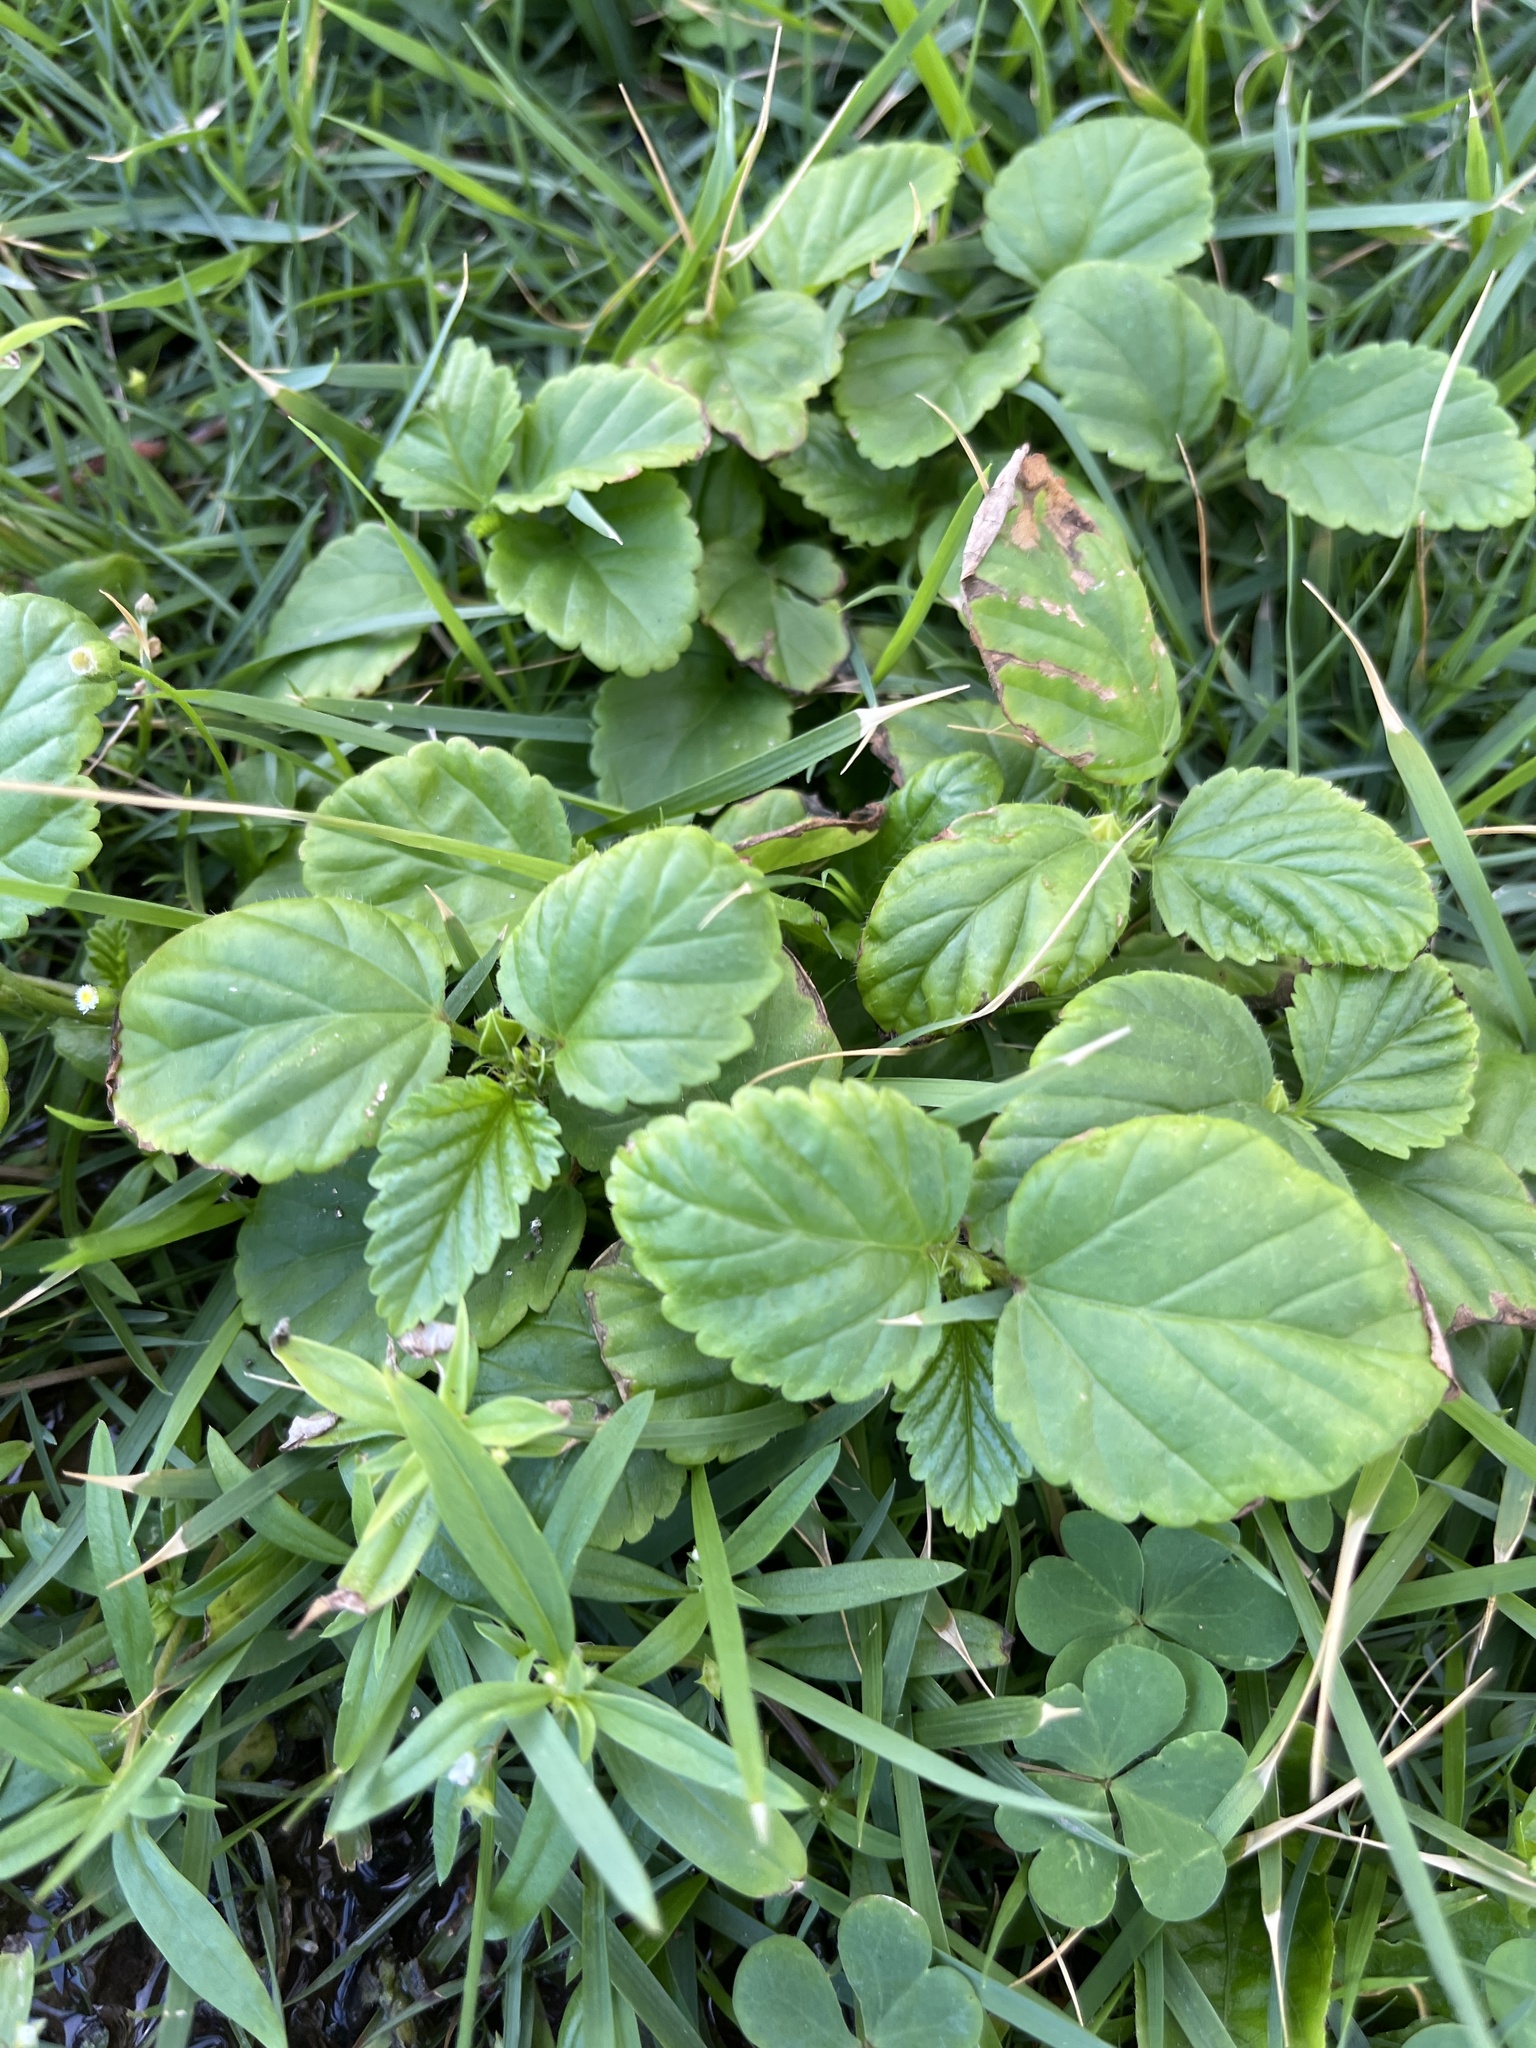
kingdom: Plantae
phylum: Tracheophyta
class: Magnoliopsida
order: Malvales
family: Malvaceae
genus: Malvastrum
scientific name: Malvastrum coromandelianum
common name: Threelobe false mallow
